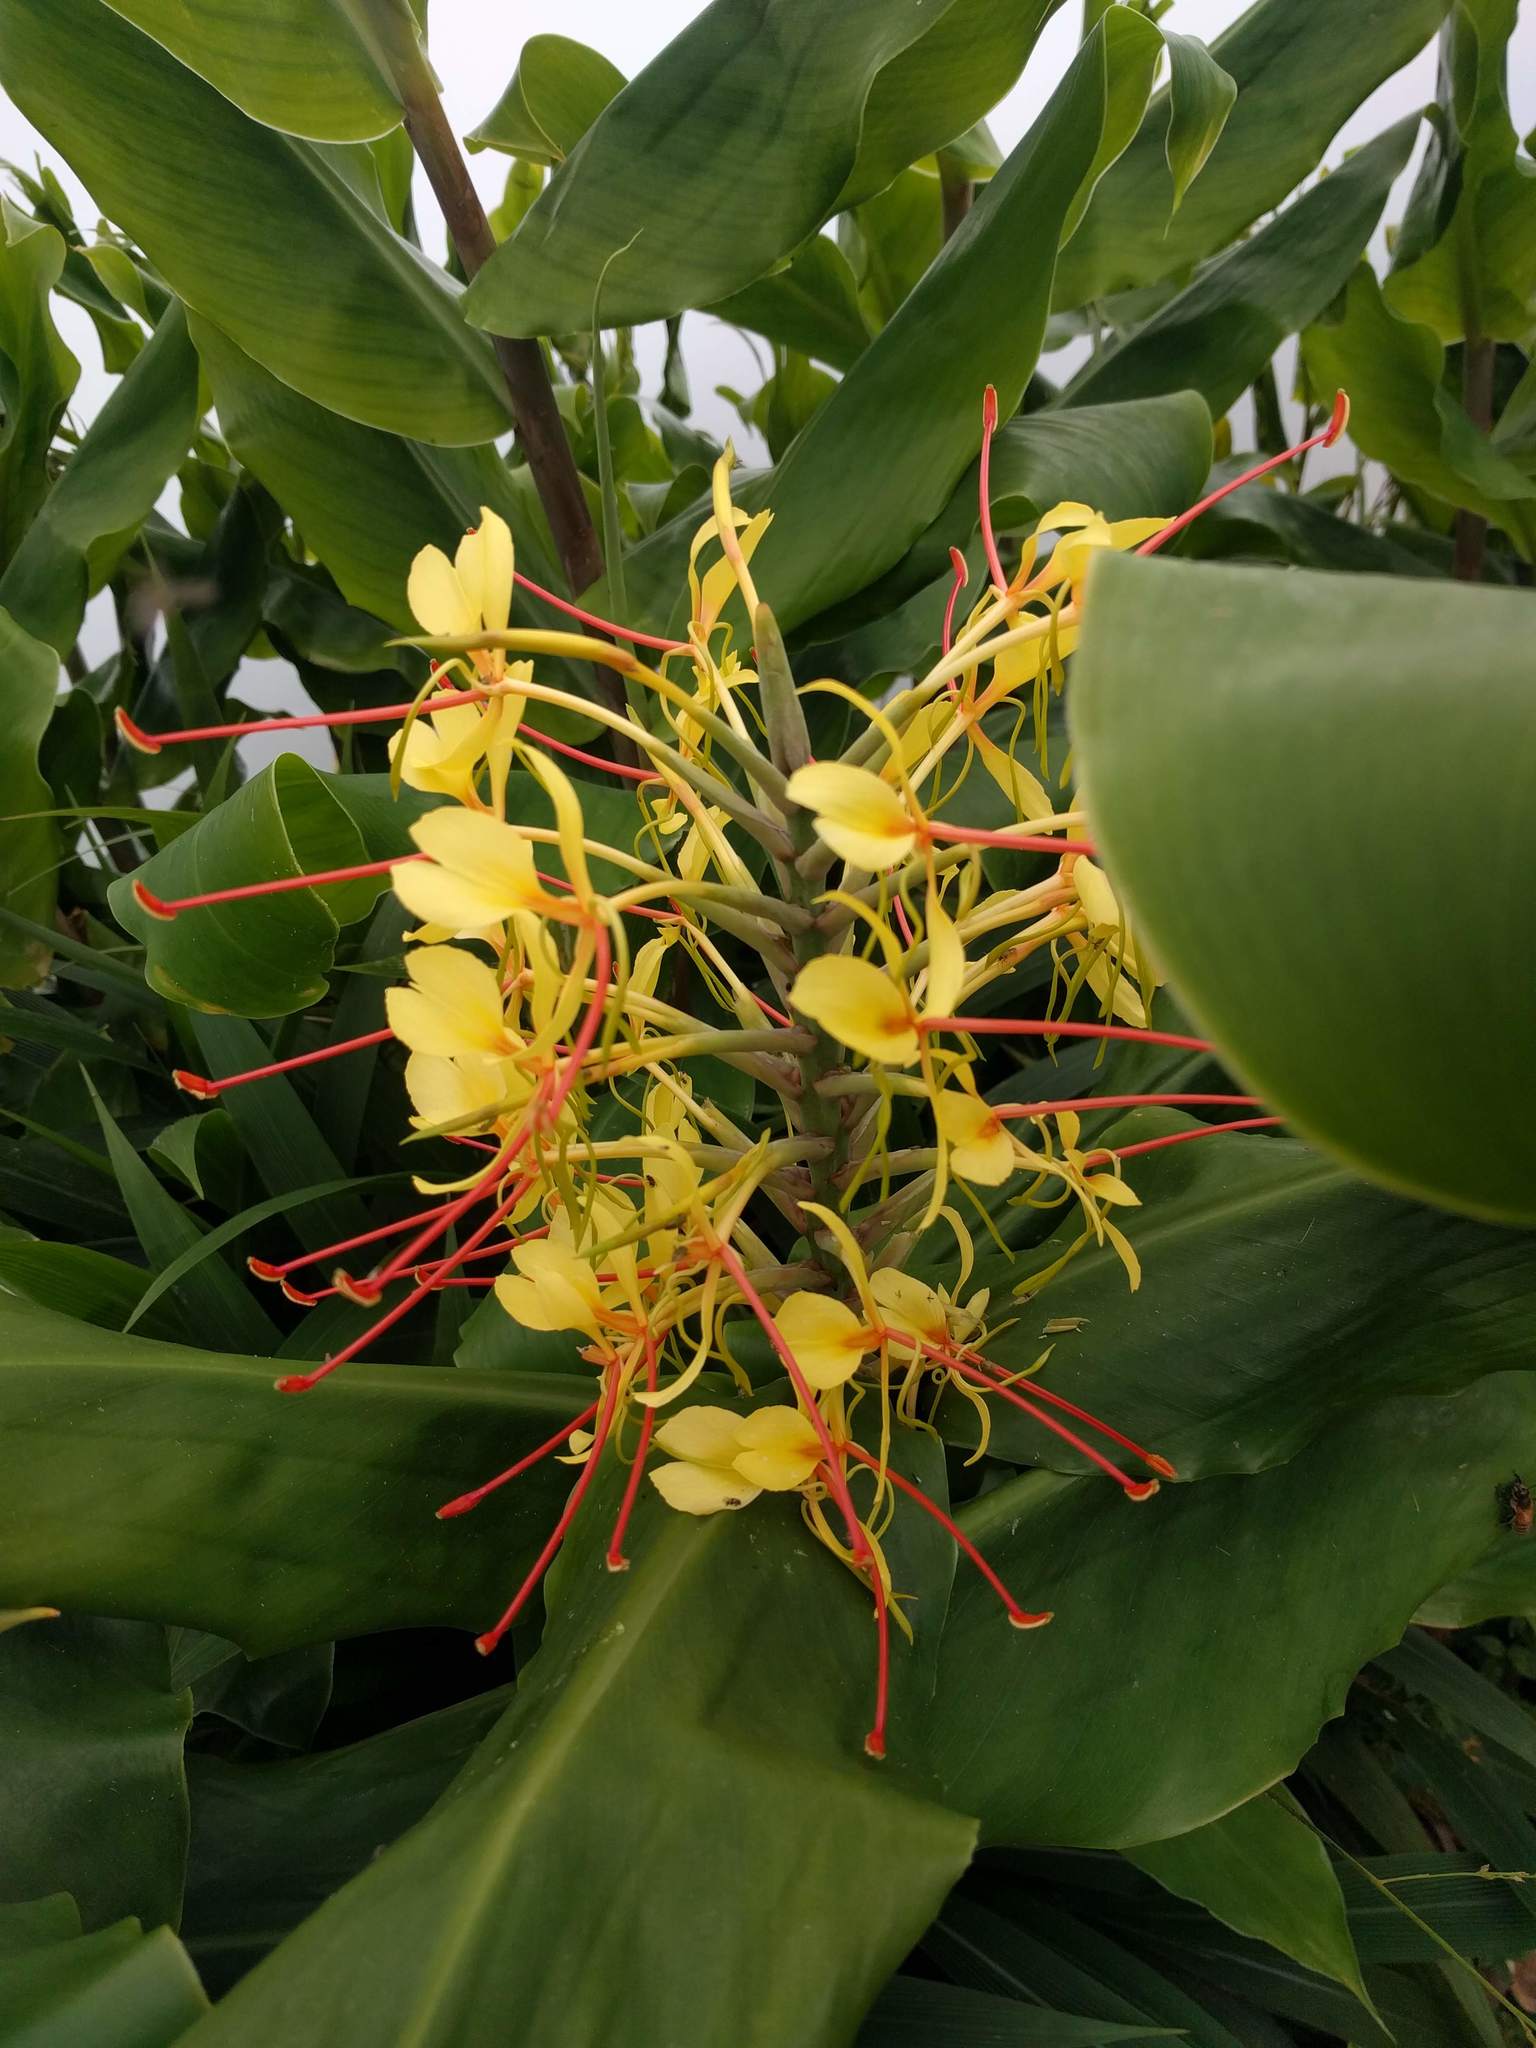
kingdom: Plantae
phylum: Tracheophyta
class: Liliopsida
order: Zingiberales
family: Zingiberaceae
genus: Hedychium
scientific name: Hedychium gardnerianum
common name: Himalayan ginger
